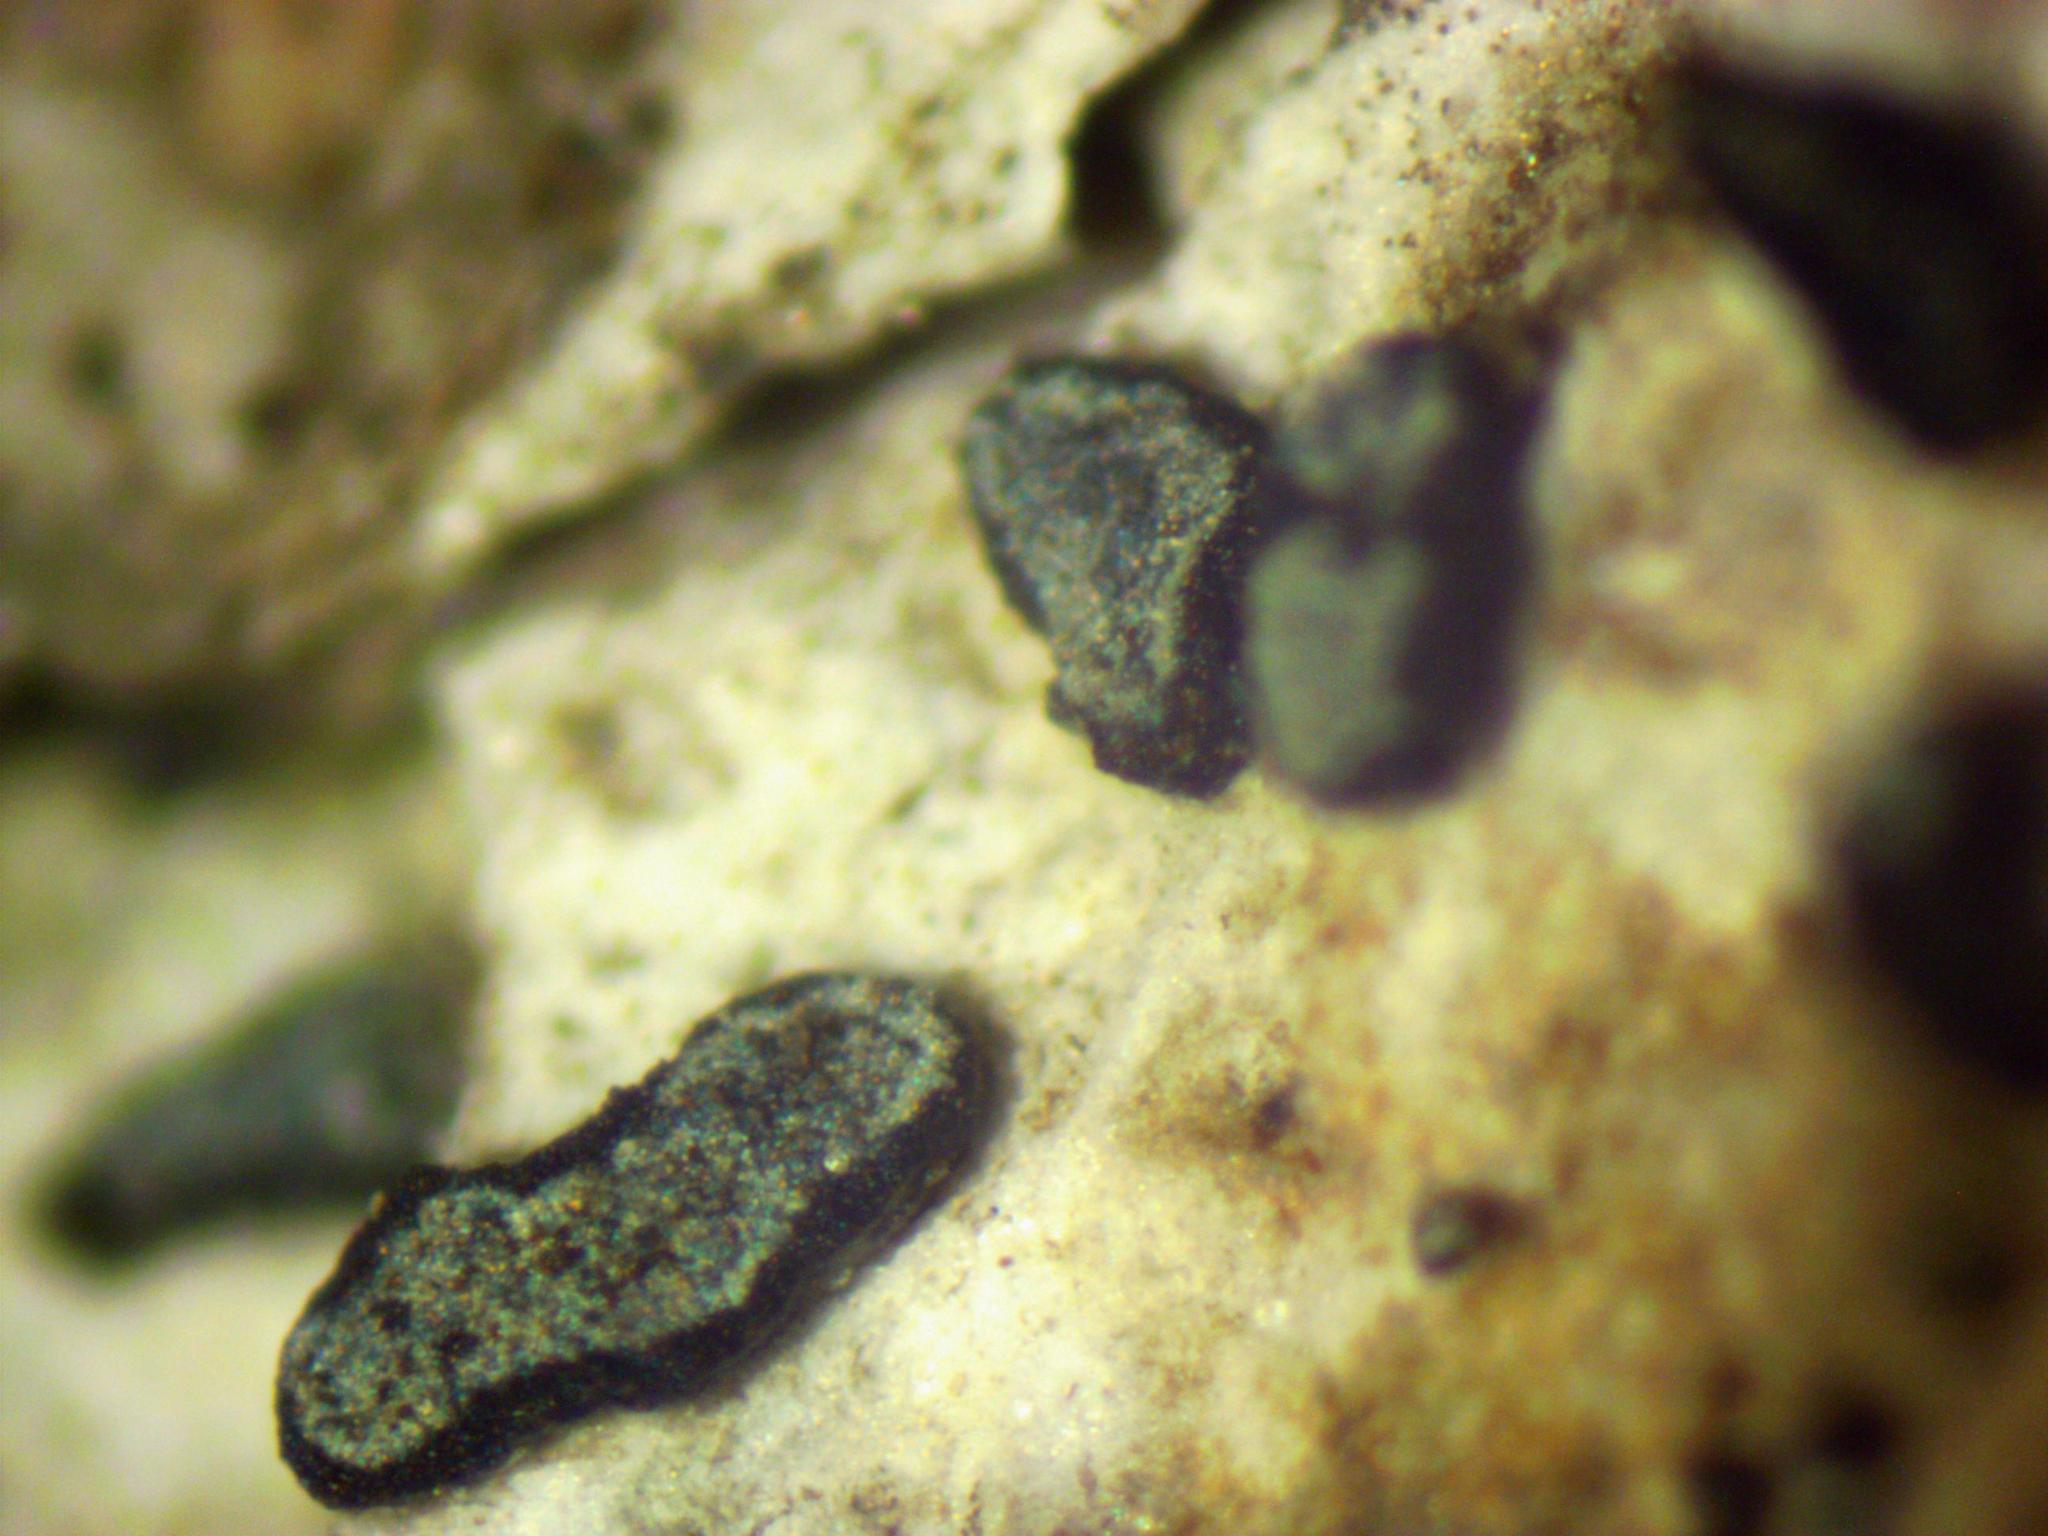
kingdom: Fungi
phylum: Ascomycota
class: Arthoniomycetes
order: Arthoniales
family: Lecanographaceae
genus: Alyxoria
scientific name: Alyxoria varia
